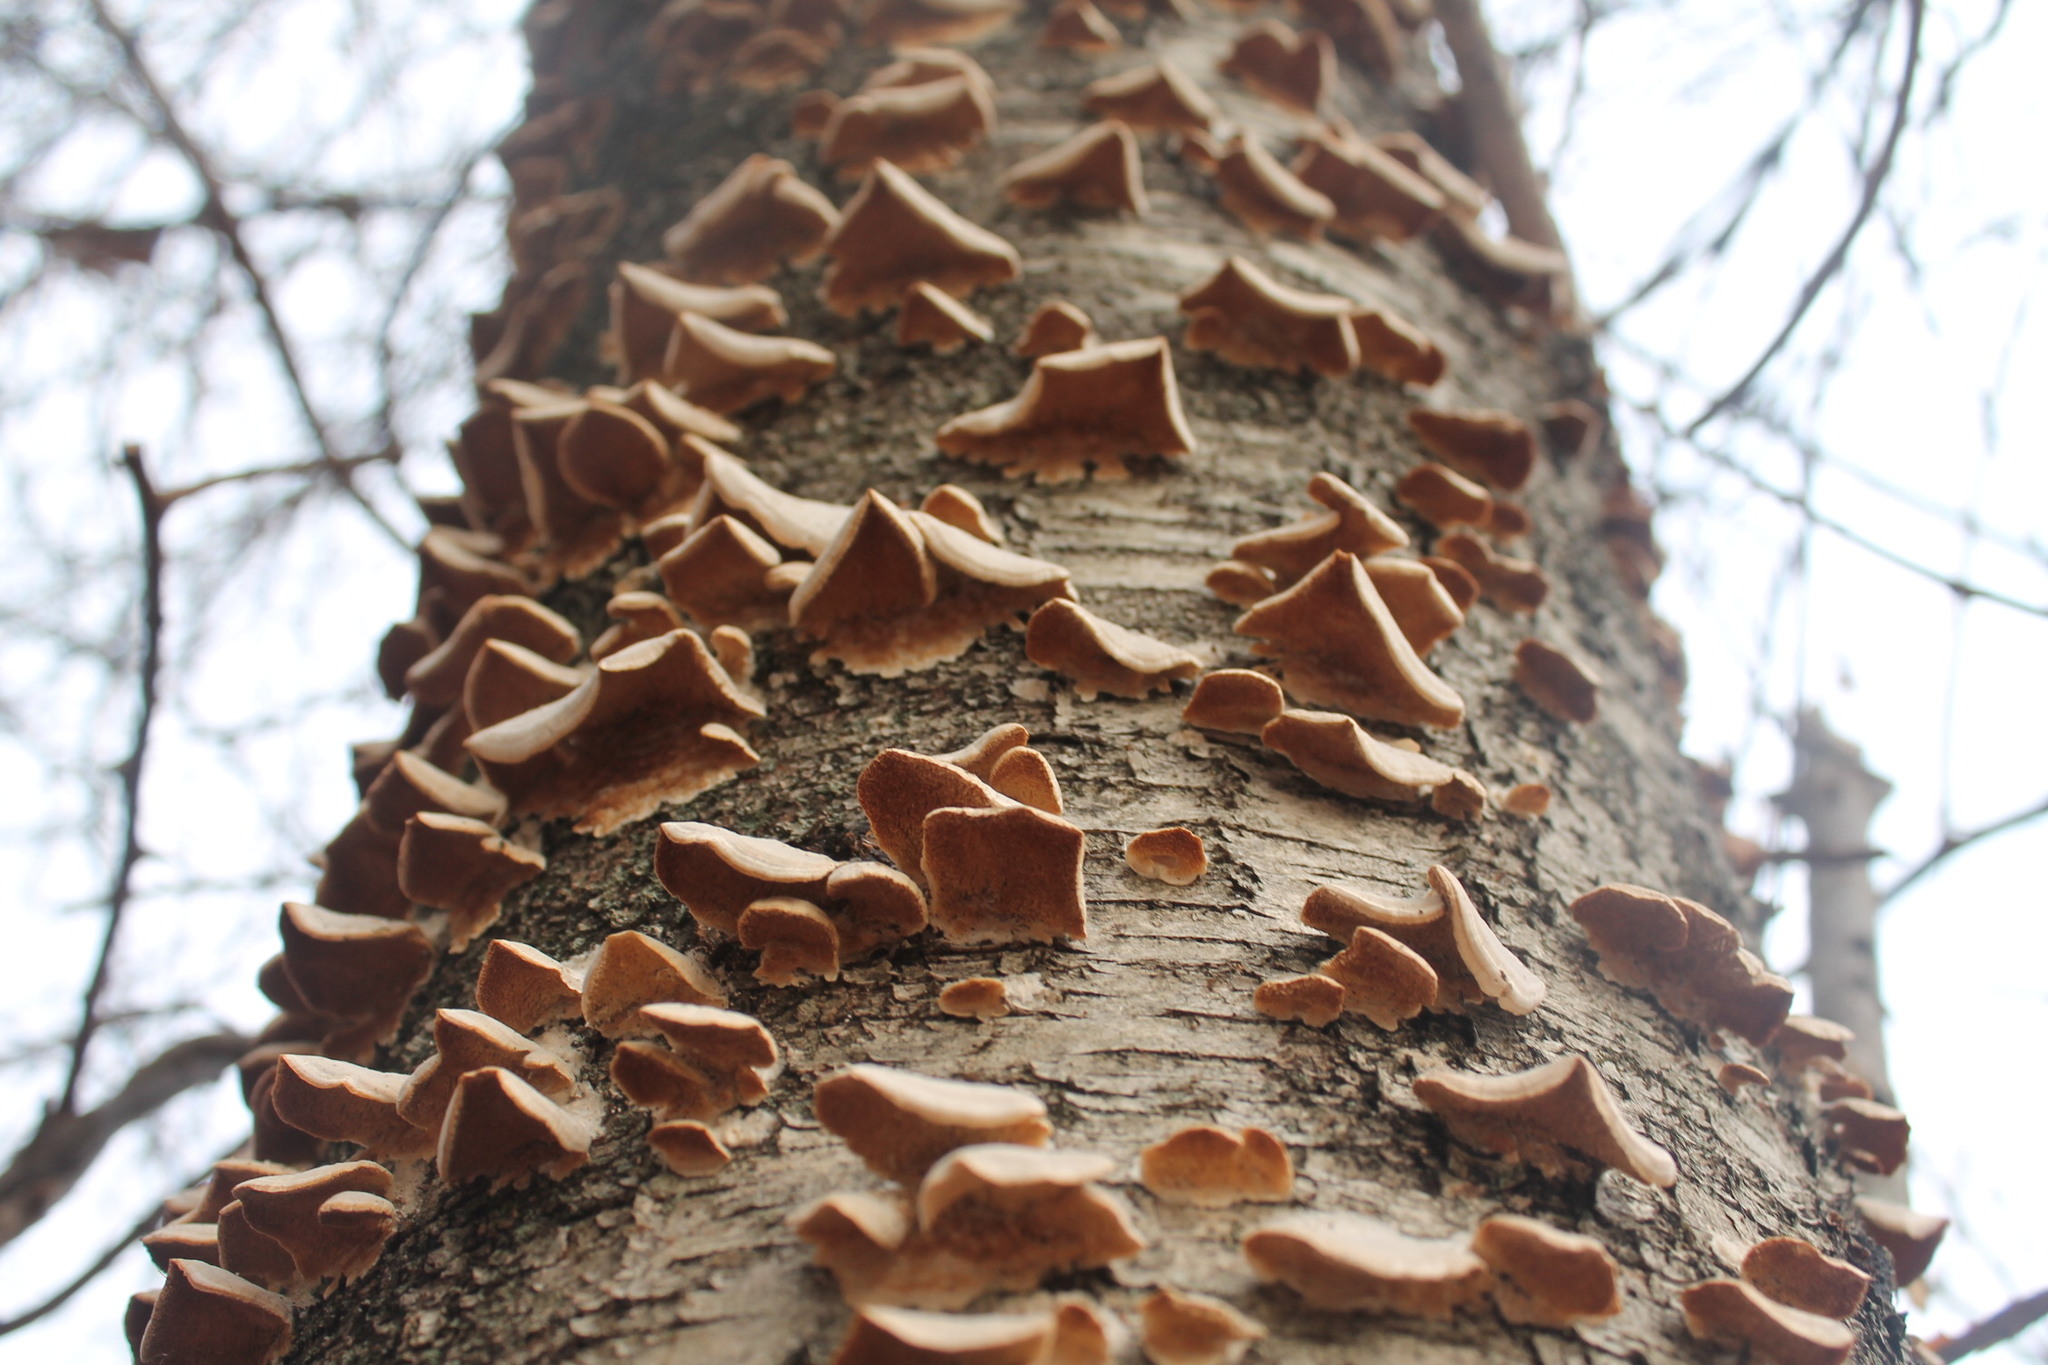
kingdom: Fungi
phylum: Basidiomycota
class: Agaricomycetes
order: Hymenochaetales
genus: Trichaptum
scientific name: Trichaptum biforme
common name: Violet-toothed polypore
